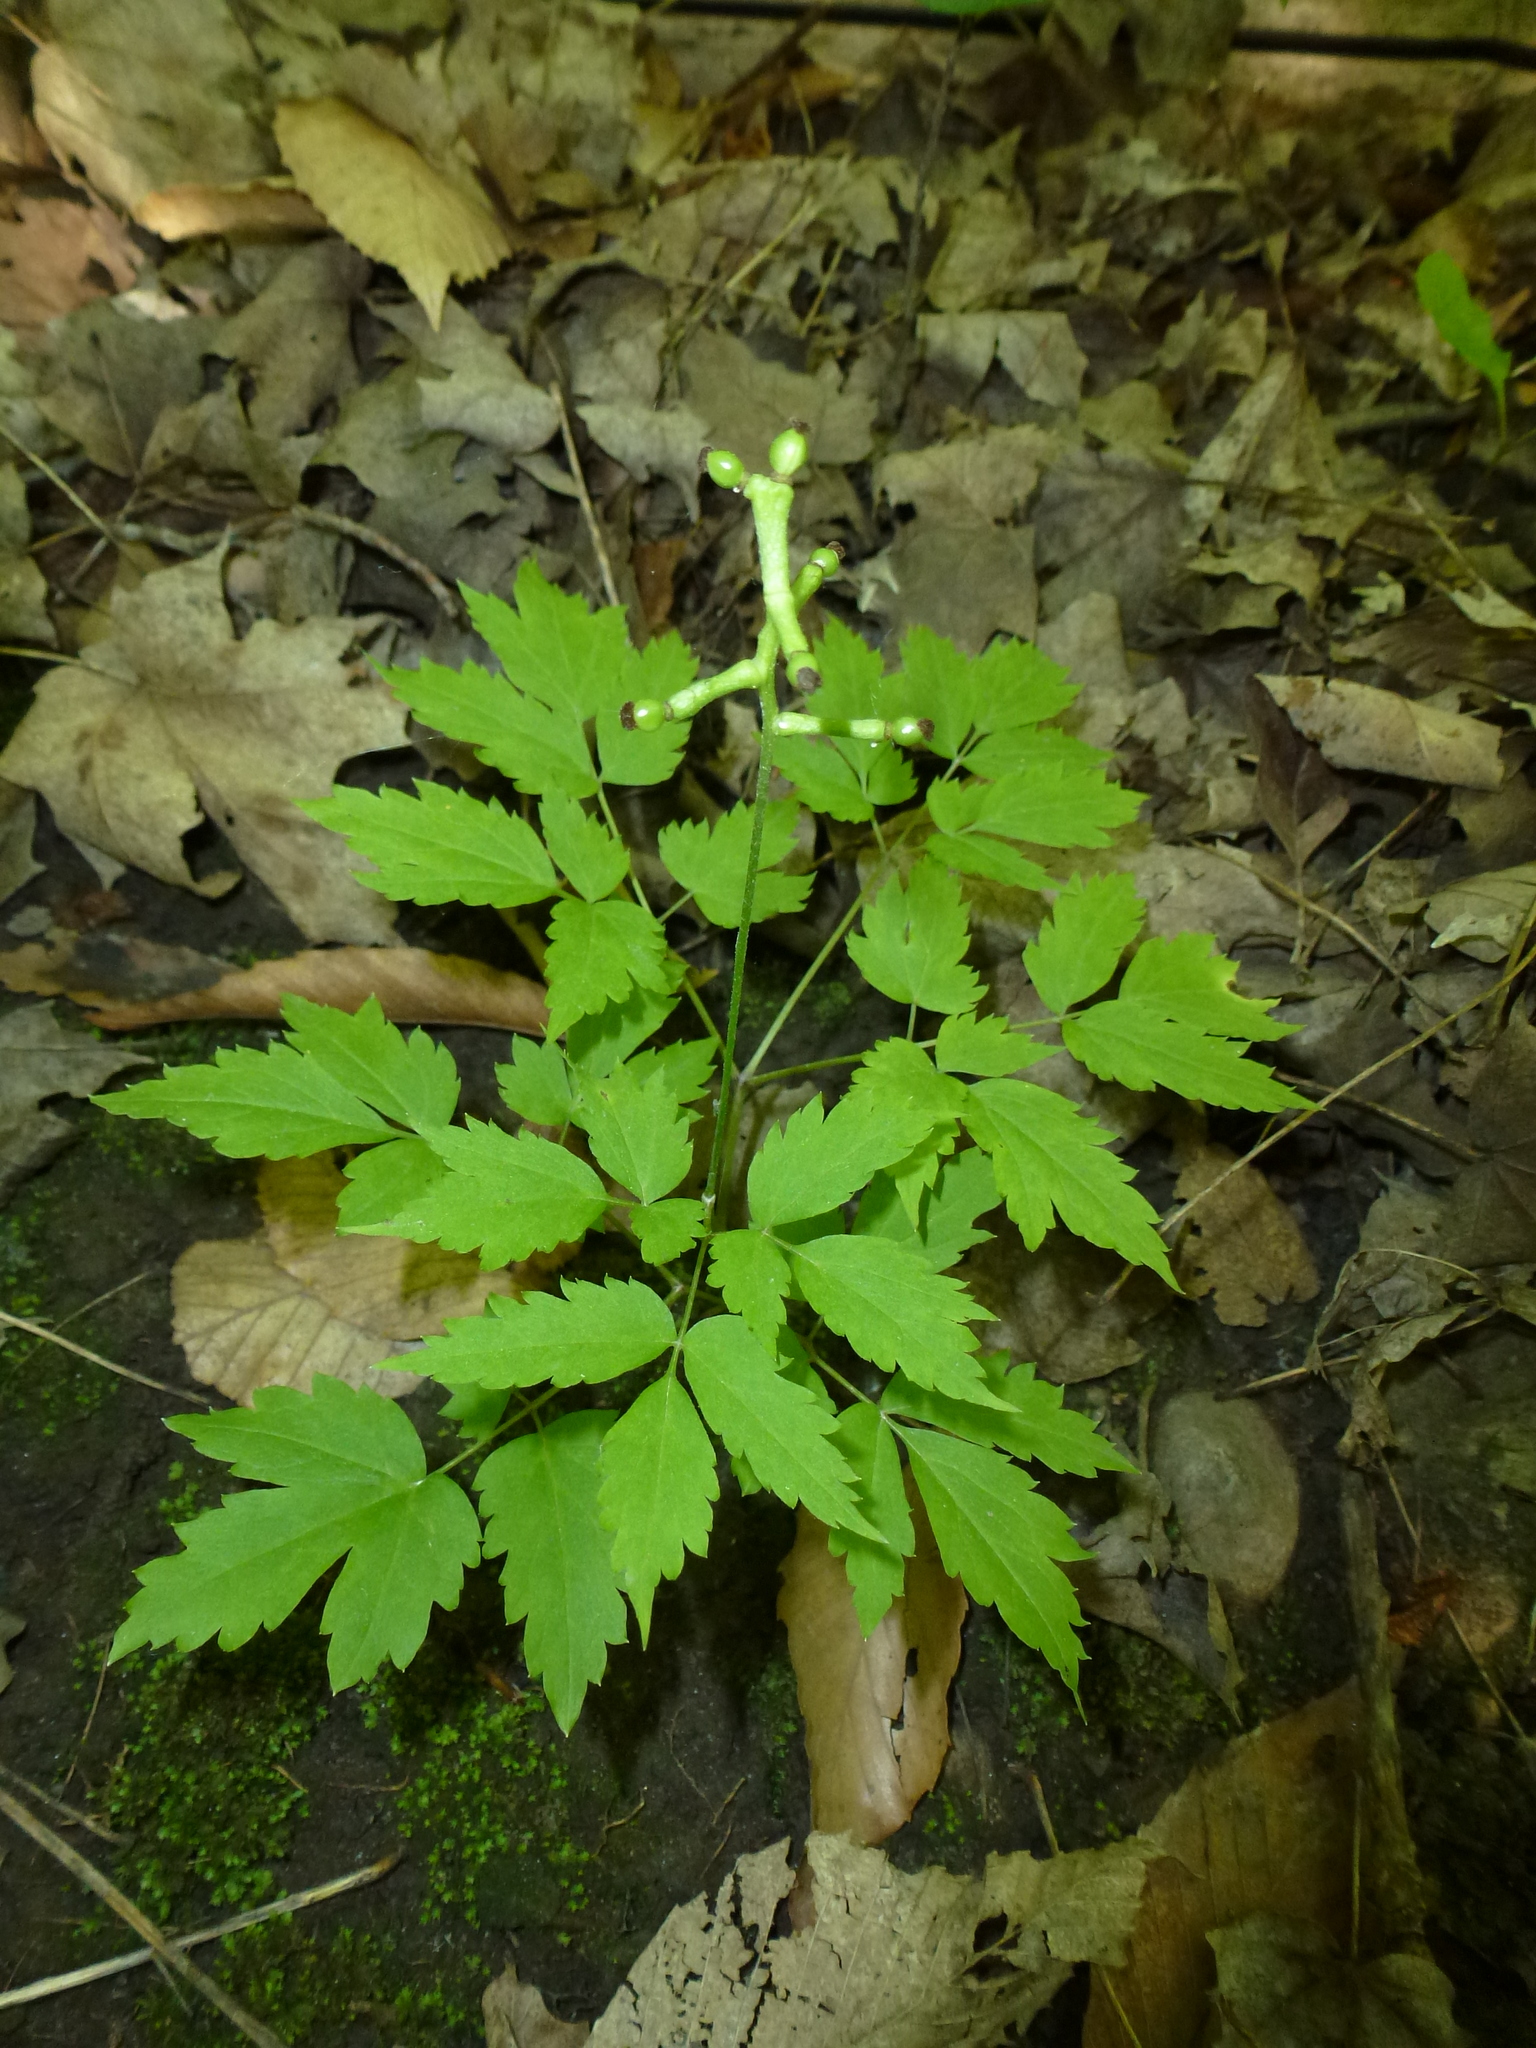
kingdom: Plantae
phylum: Tracheophyta
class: Magnoliopsida
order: Ranunculales
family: Ranunculaceae
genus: Actaea
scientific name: Actaea pachypoda
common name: Doll's-eyes
